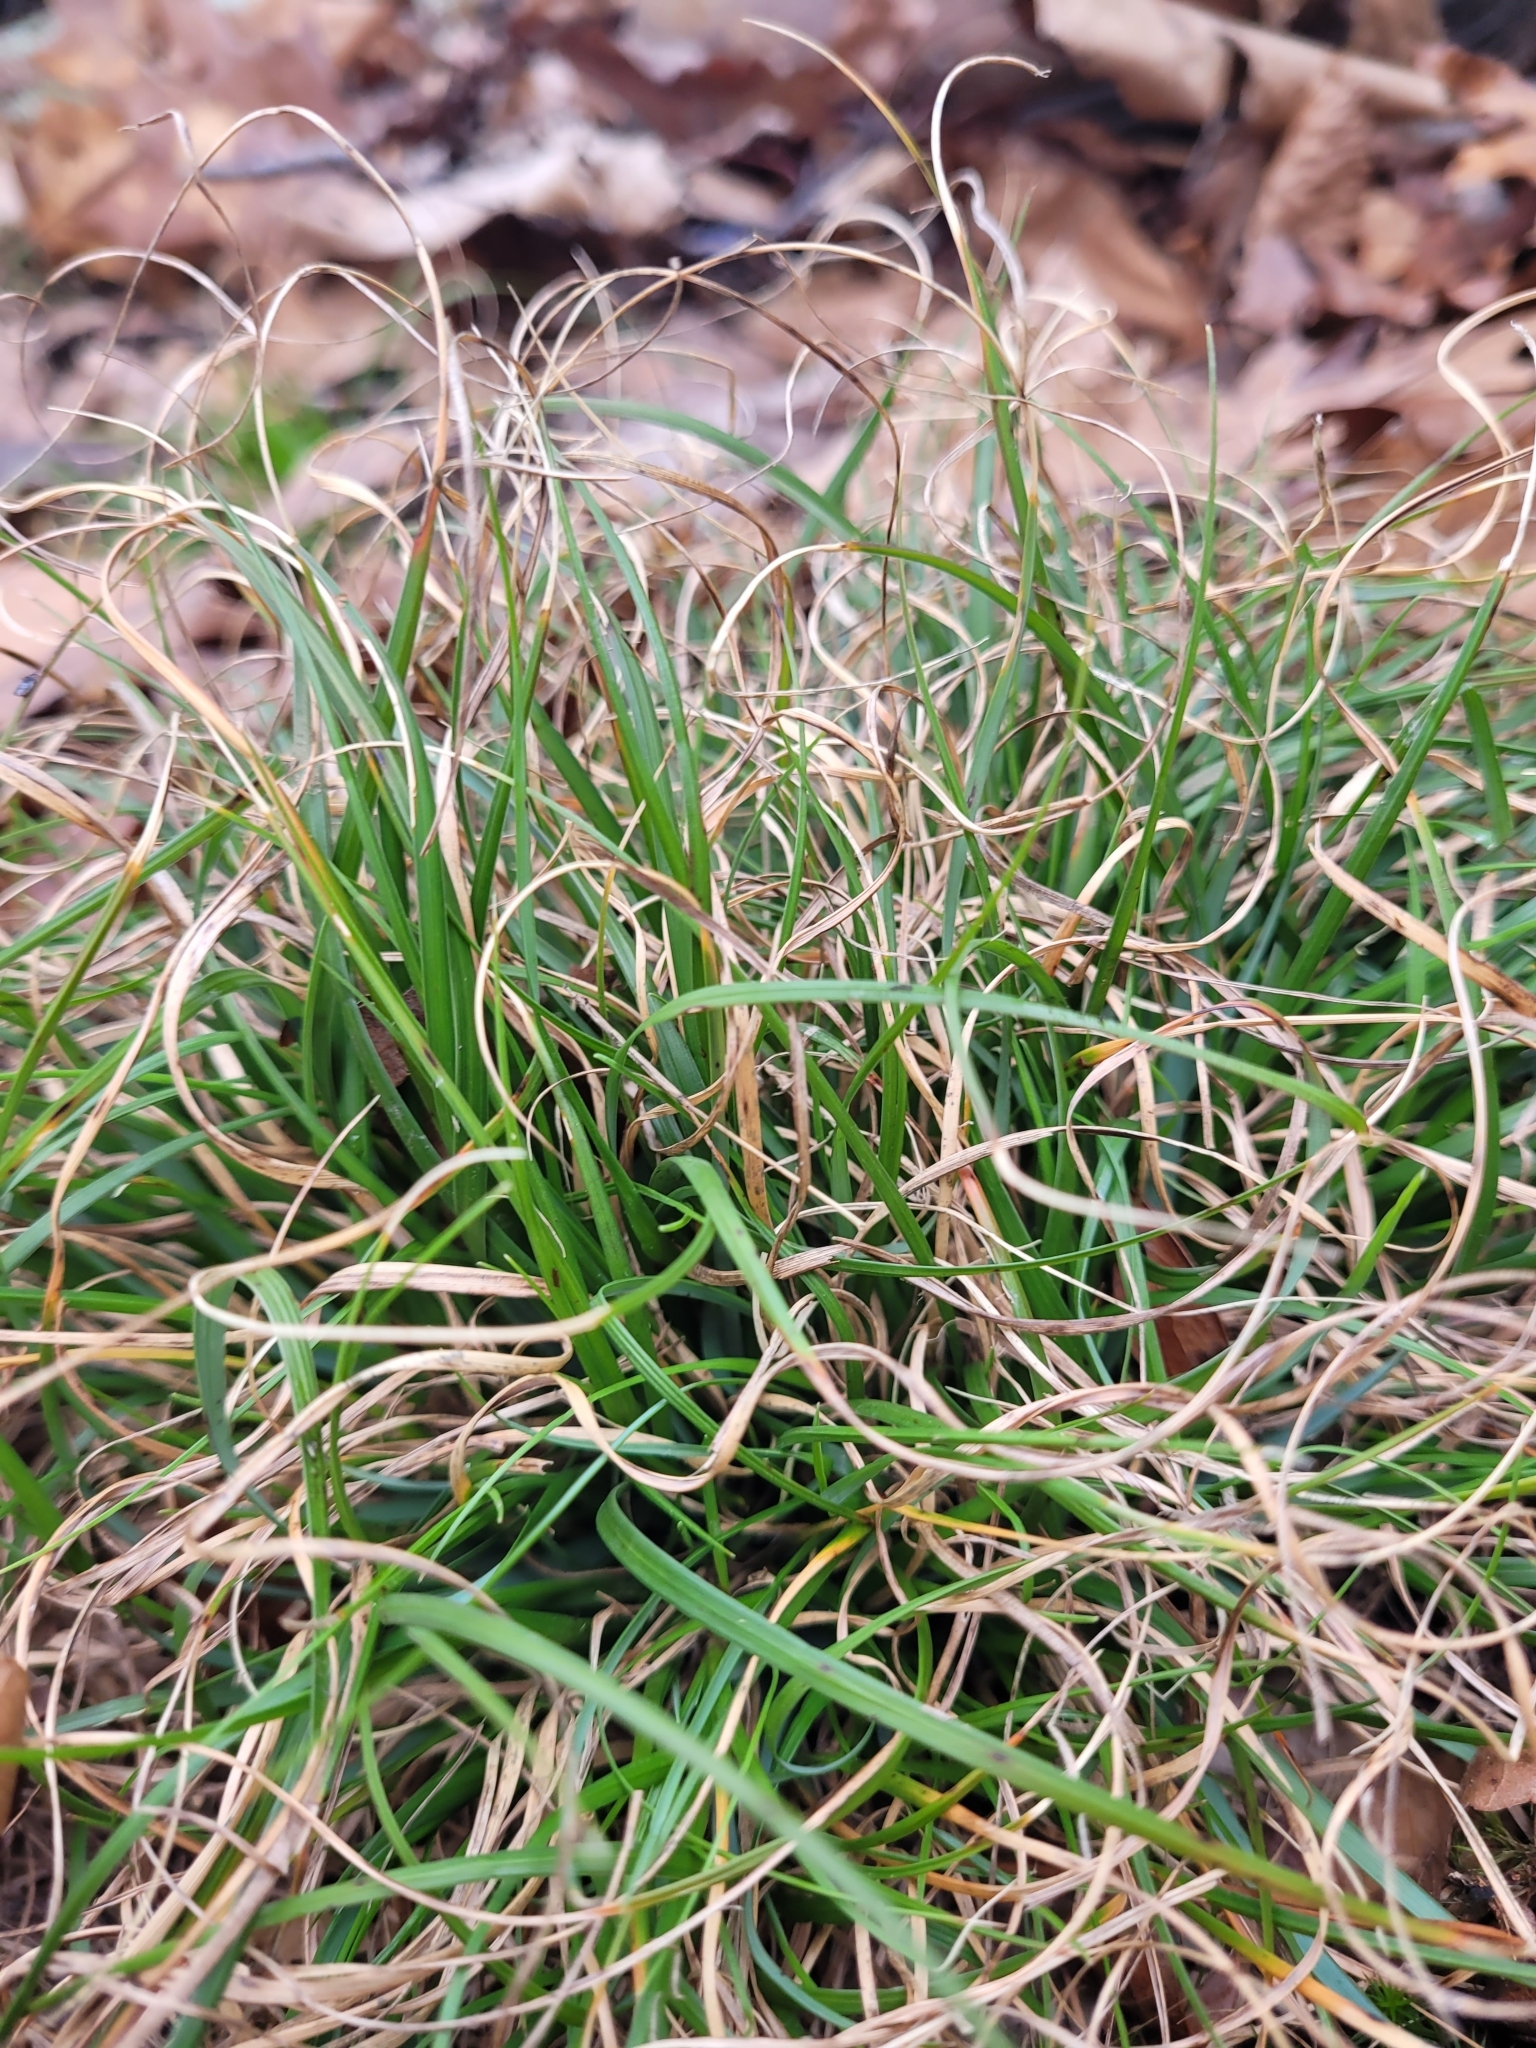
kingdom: Plantae
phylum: Tracheophyta
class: Liliopsida
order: Poales
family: Poaceae
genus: Danthonia
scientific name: Danthonia spicata
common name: Common wild oatgrass
